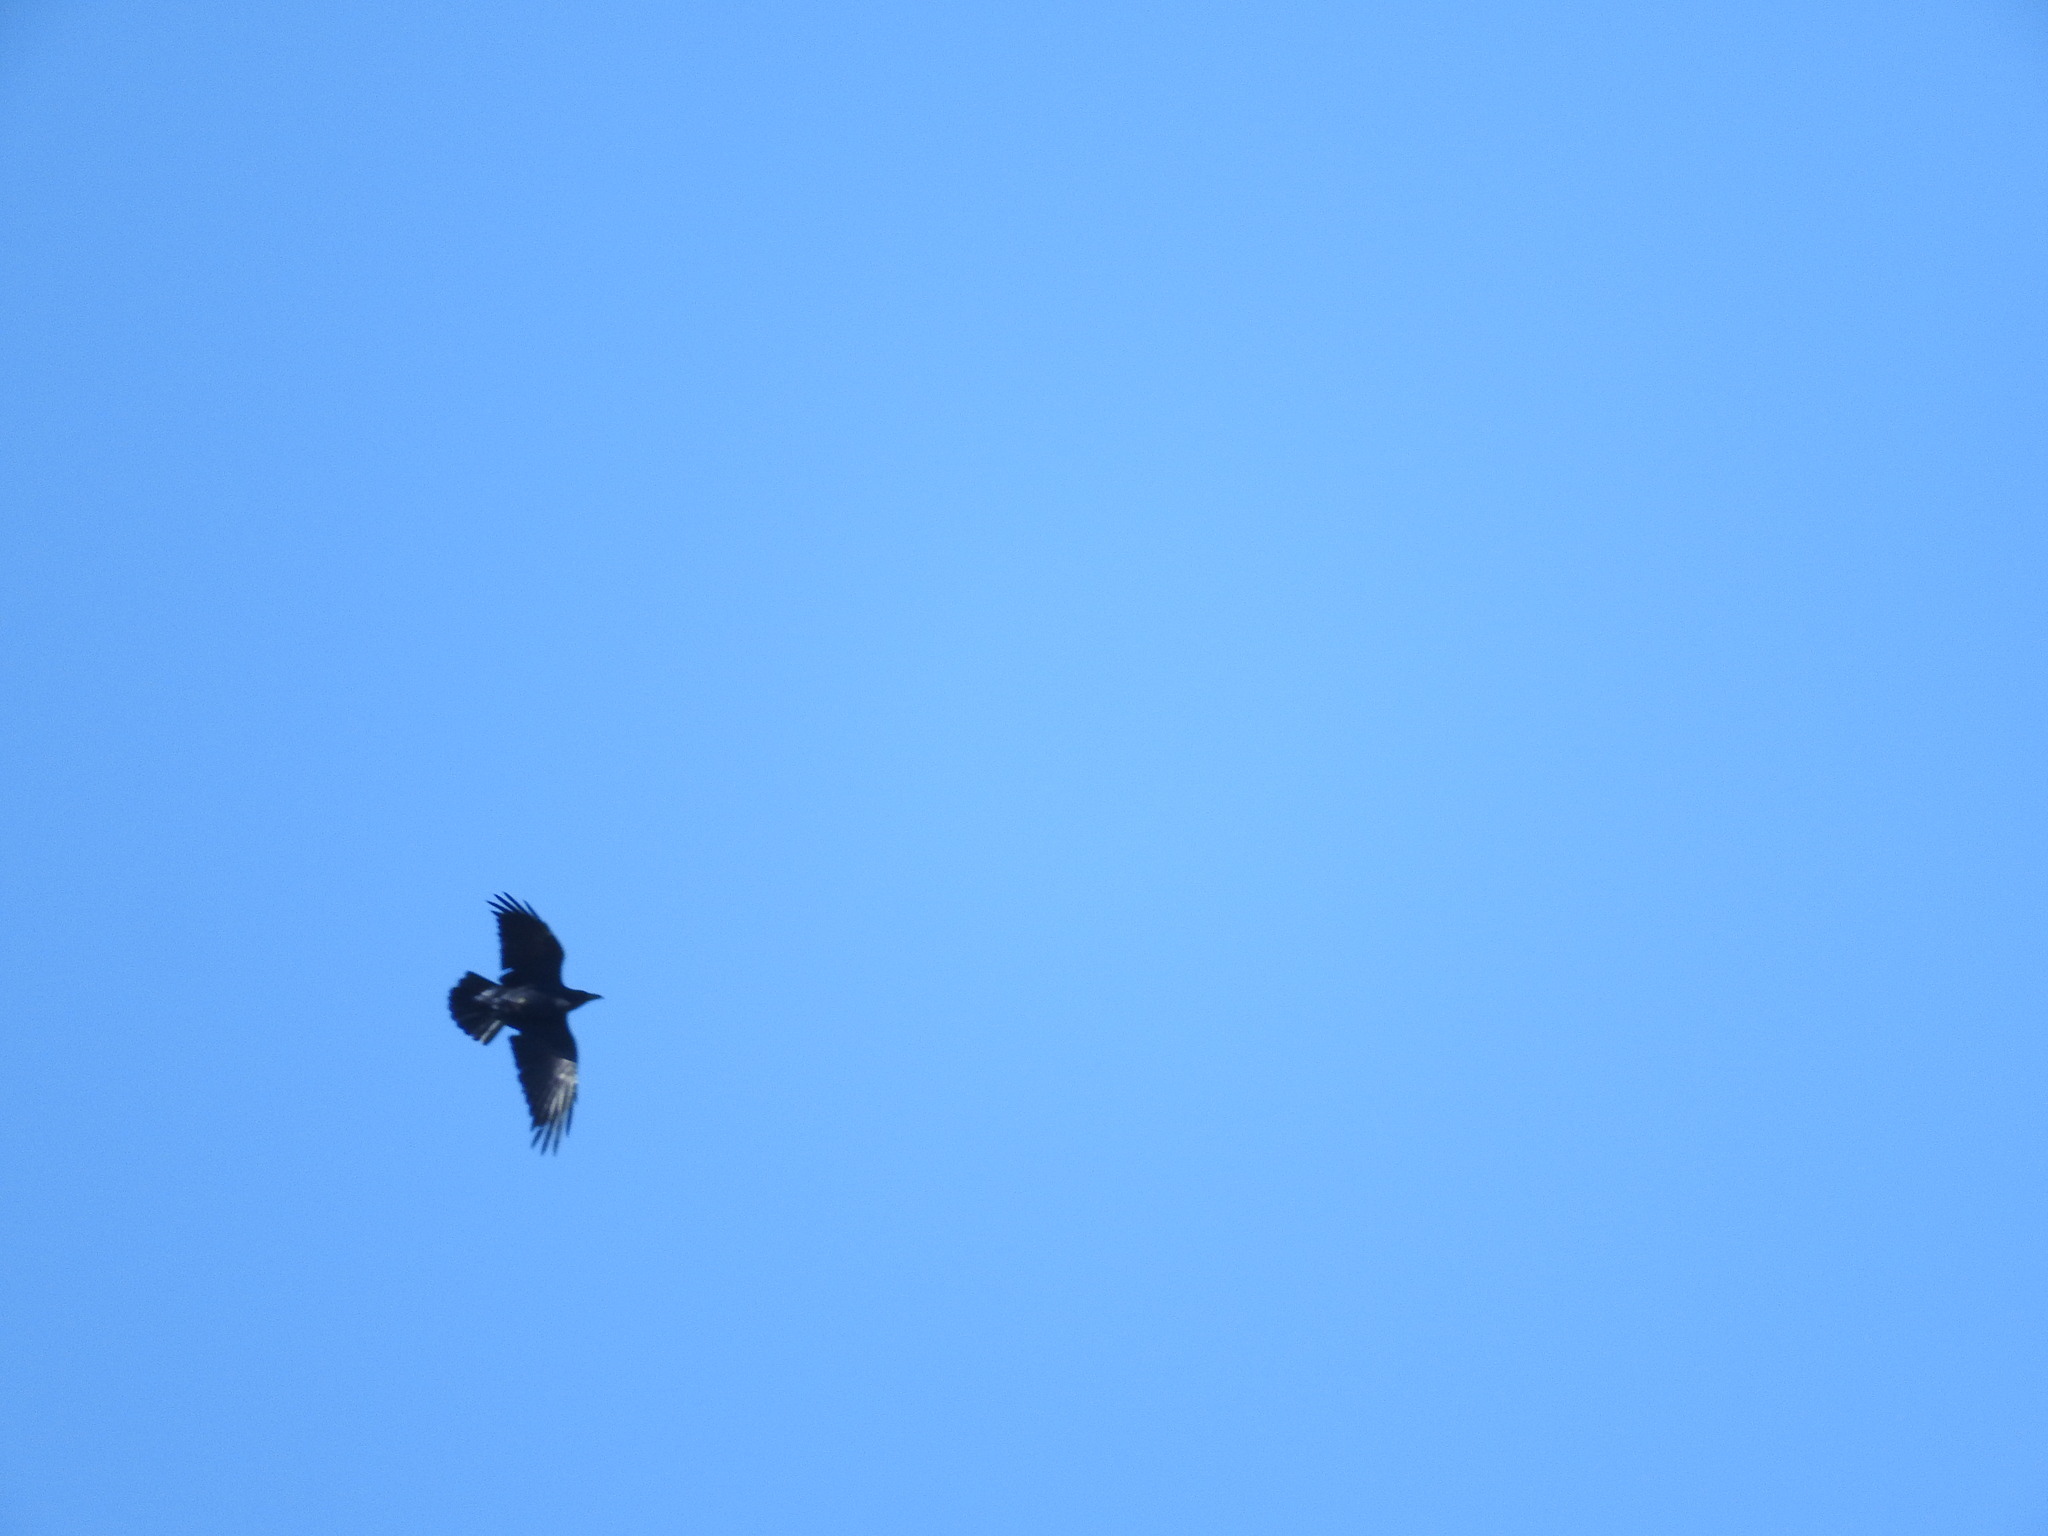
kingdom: Animalia
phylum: Chordata
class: Aves
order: Passeriformes
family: Corvidae
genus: Corvus
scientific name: Corvus corax
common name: Common raven
